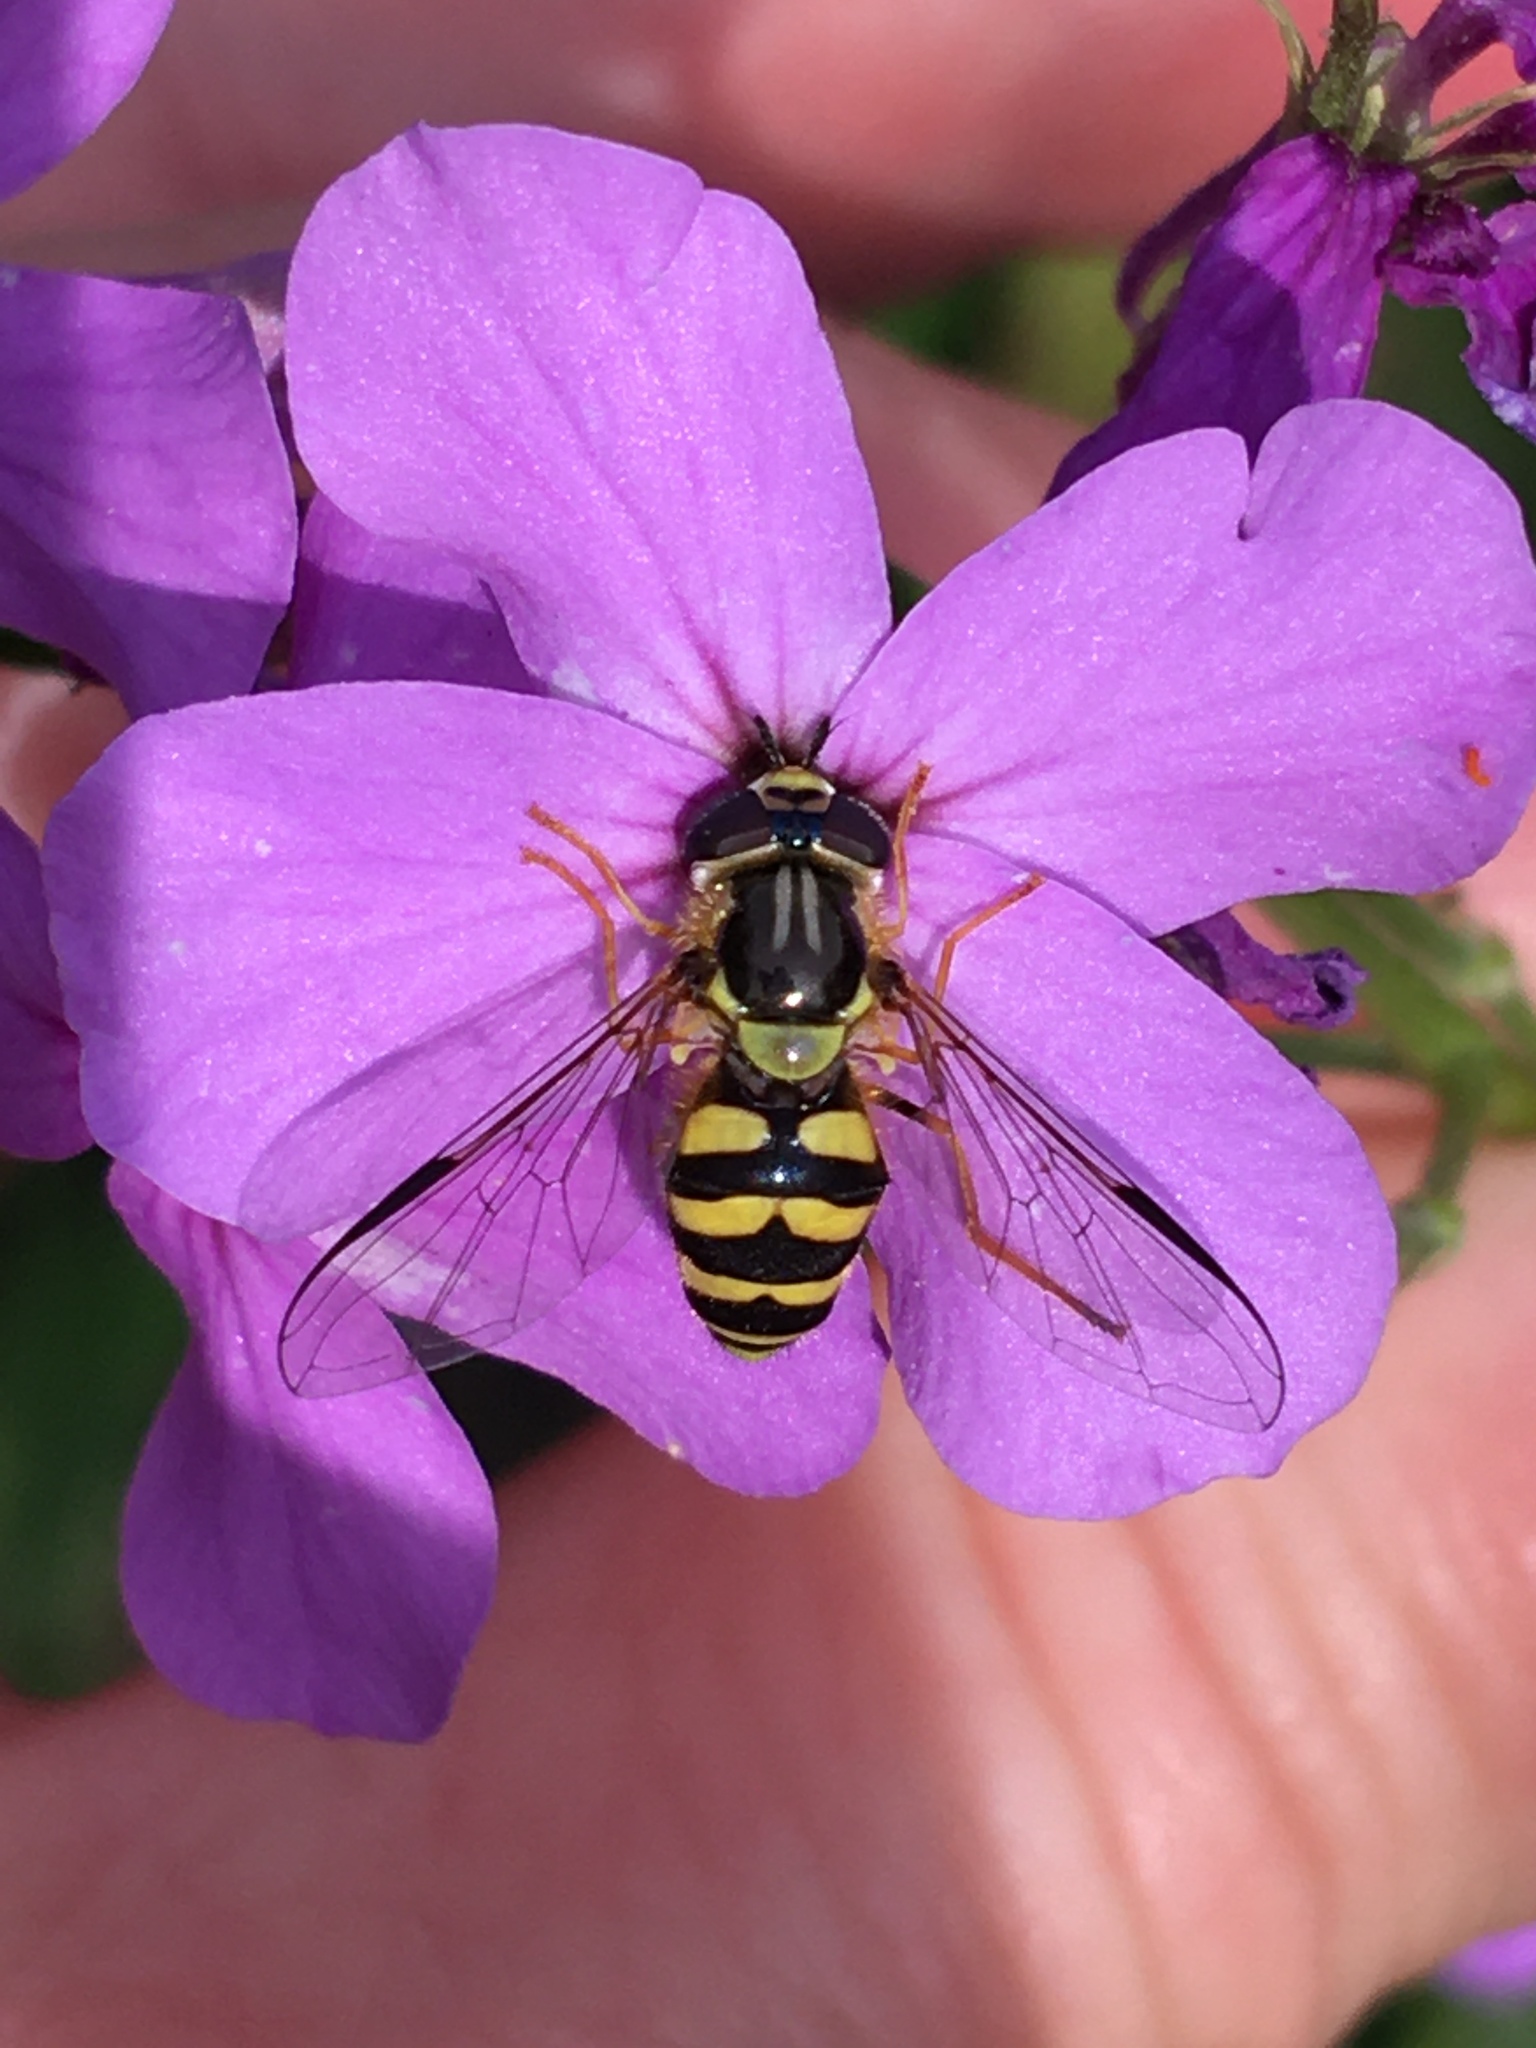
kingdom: Animalia
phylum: Arthropoda
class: Insecta
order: Diptera
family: Syrphidae
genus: Dasysyrphus
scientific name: Dasysyrphus albostriatus
